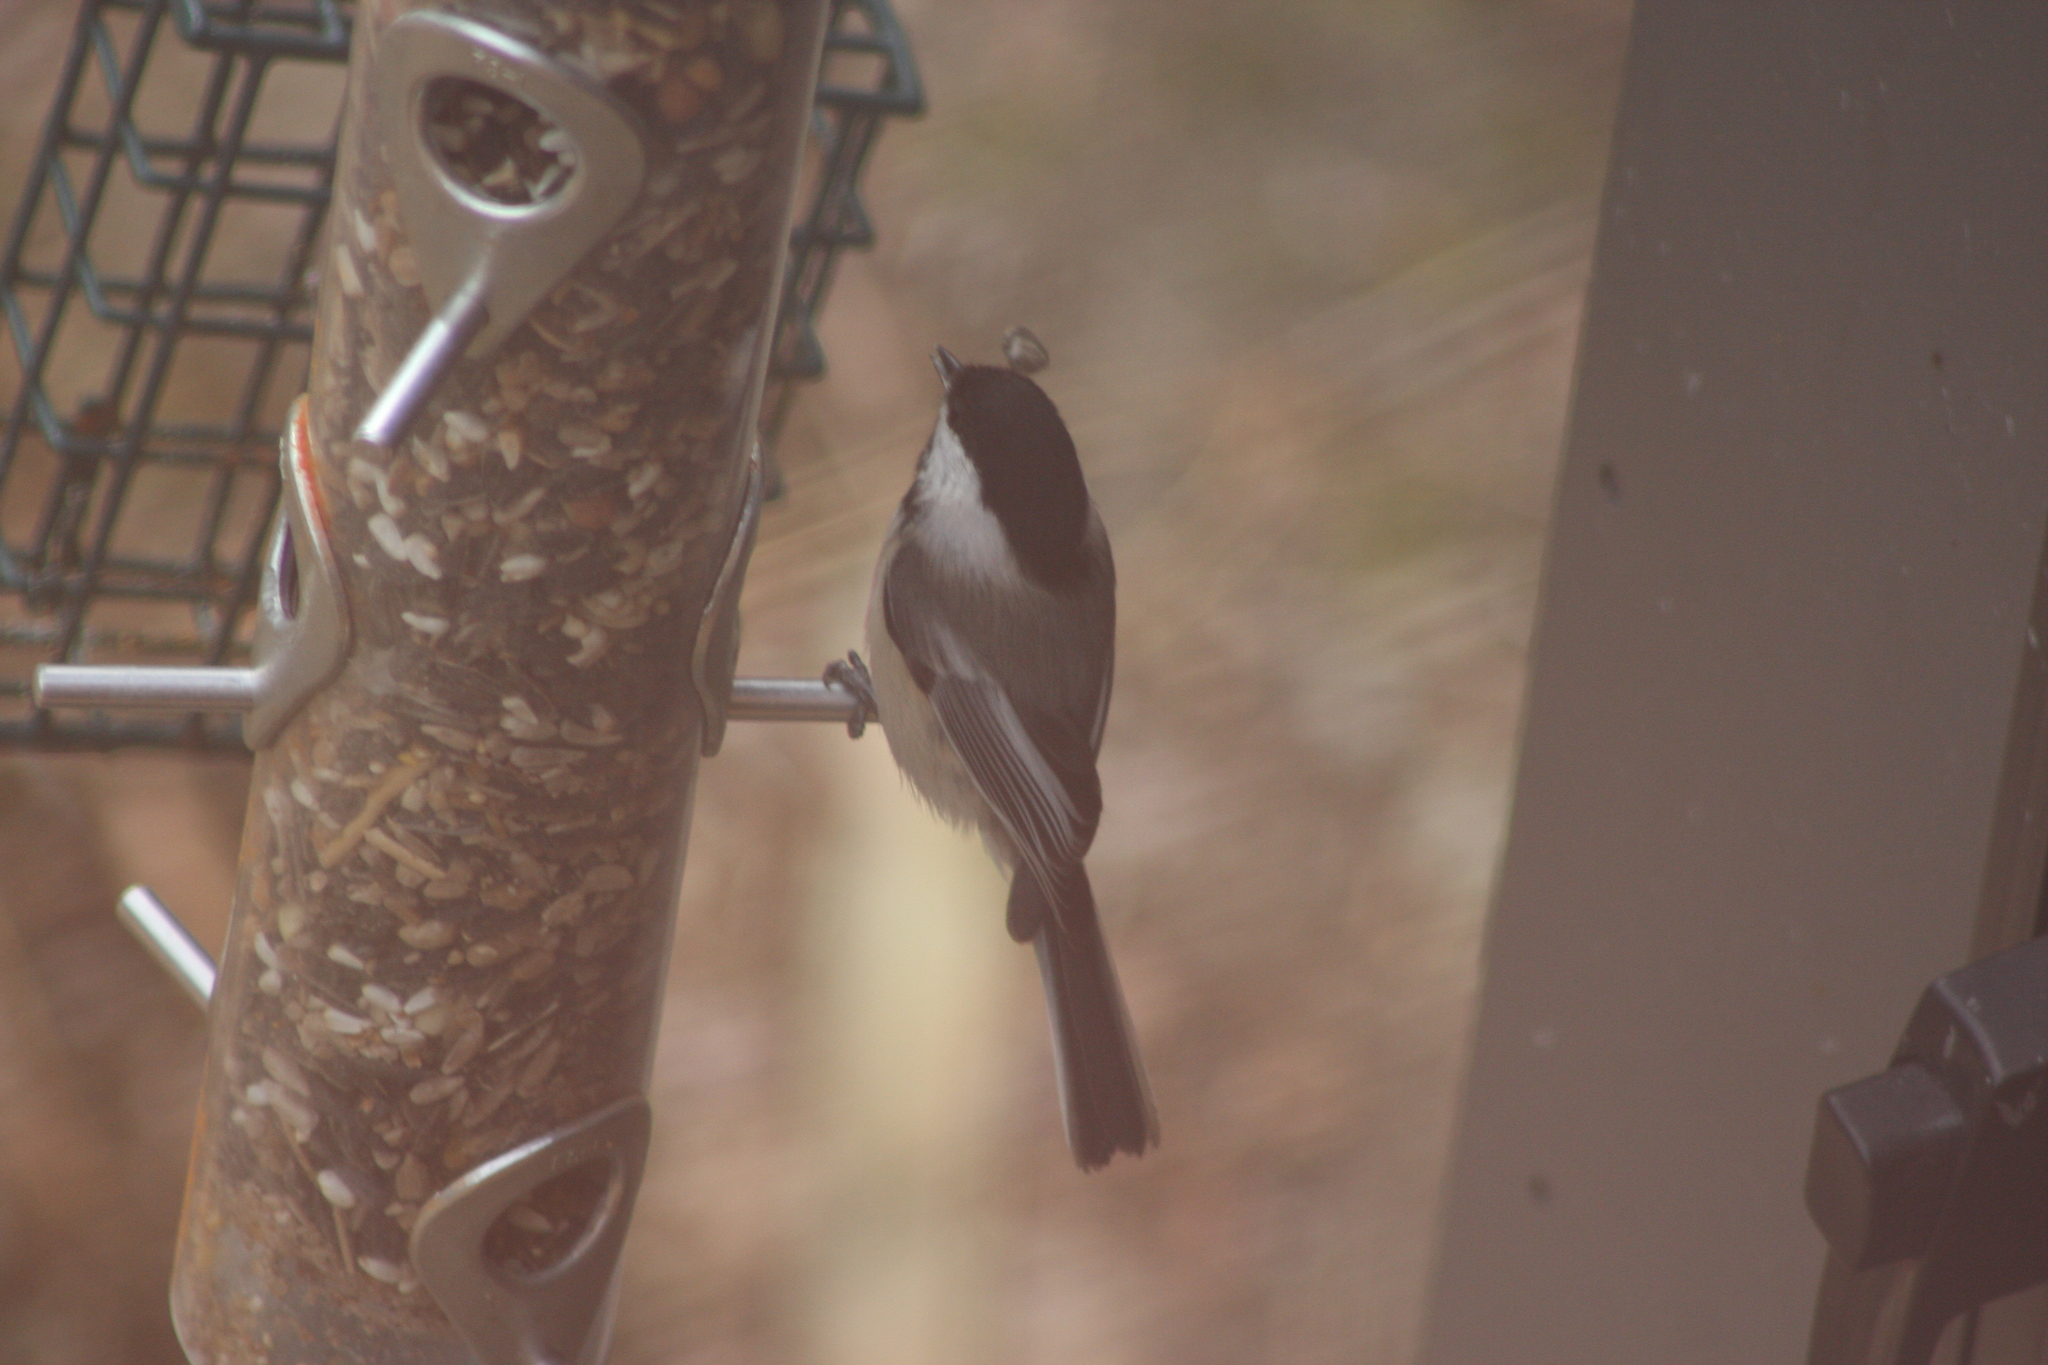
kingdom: Animalia
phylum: Chordata
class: Aves
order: Passeriformes
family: Paridae
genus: Poecile
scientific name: Poecile atricapillus
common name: Black-capped chickadee
